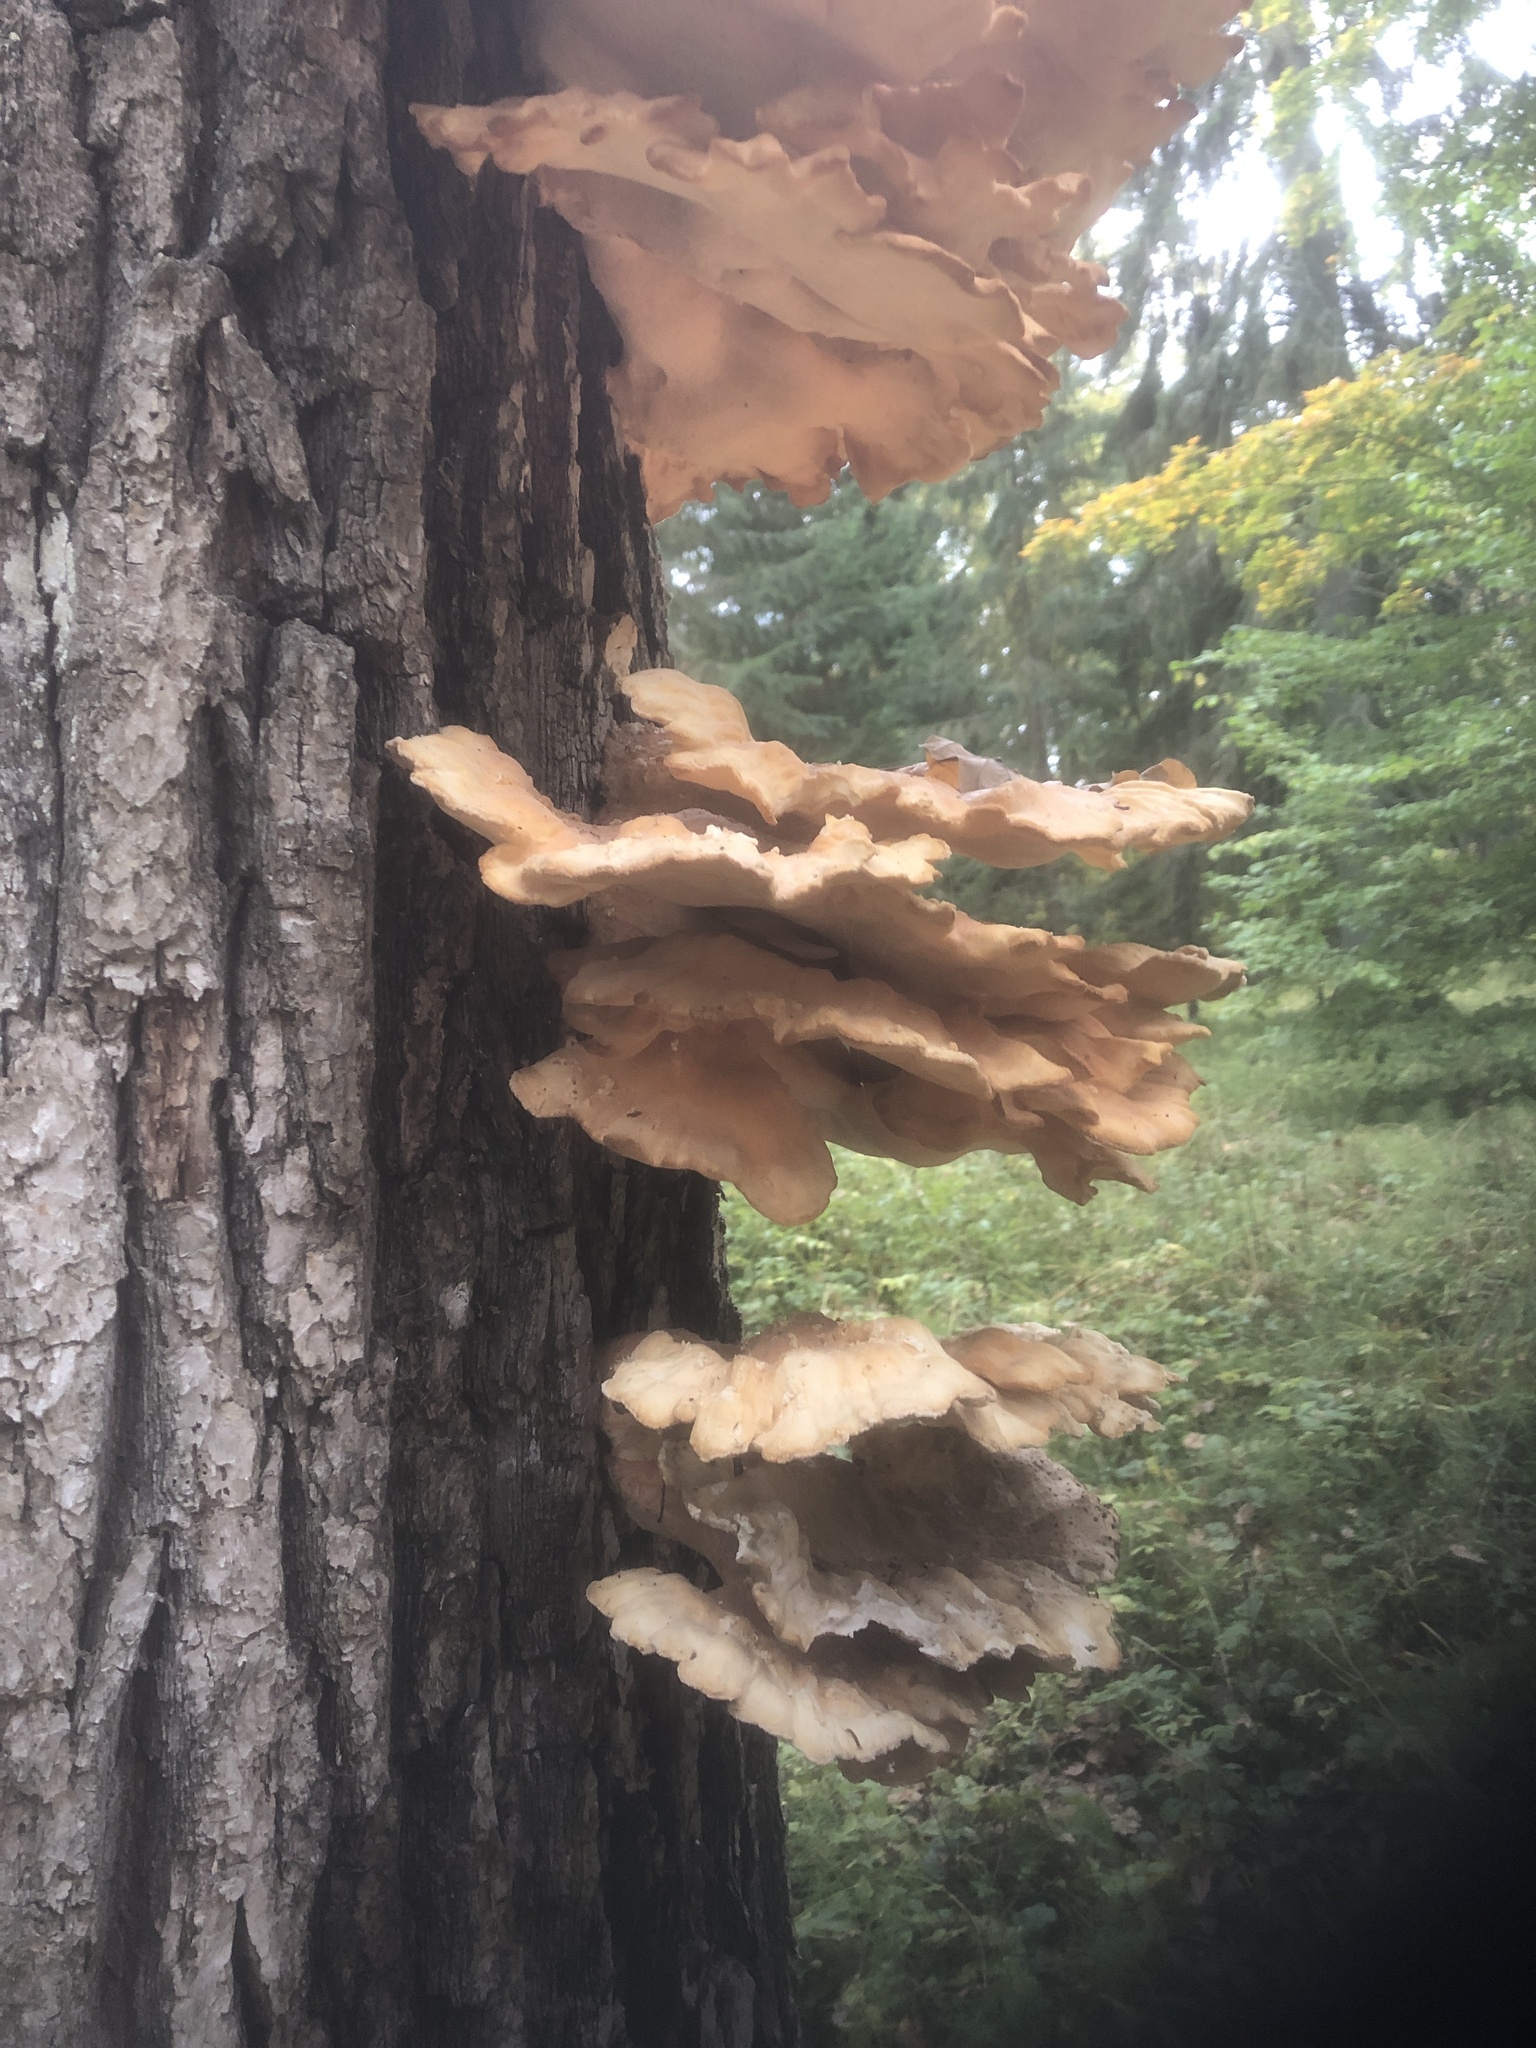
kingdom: Fungi
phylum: Basidiomycota
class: Agaricomycetes
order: Polyporales
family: Laetiporaceae
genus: Laetiporus
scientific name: Laetiporus sulphureus
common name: Chicken of the woods
